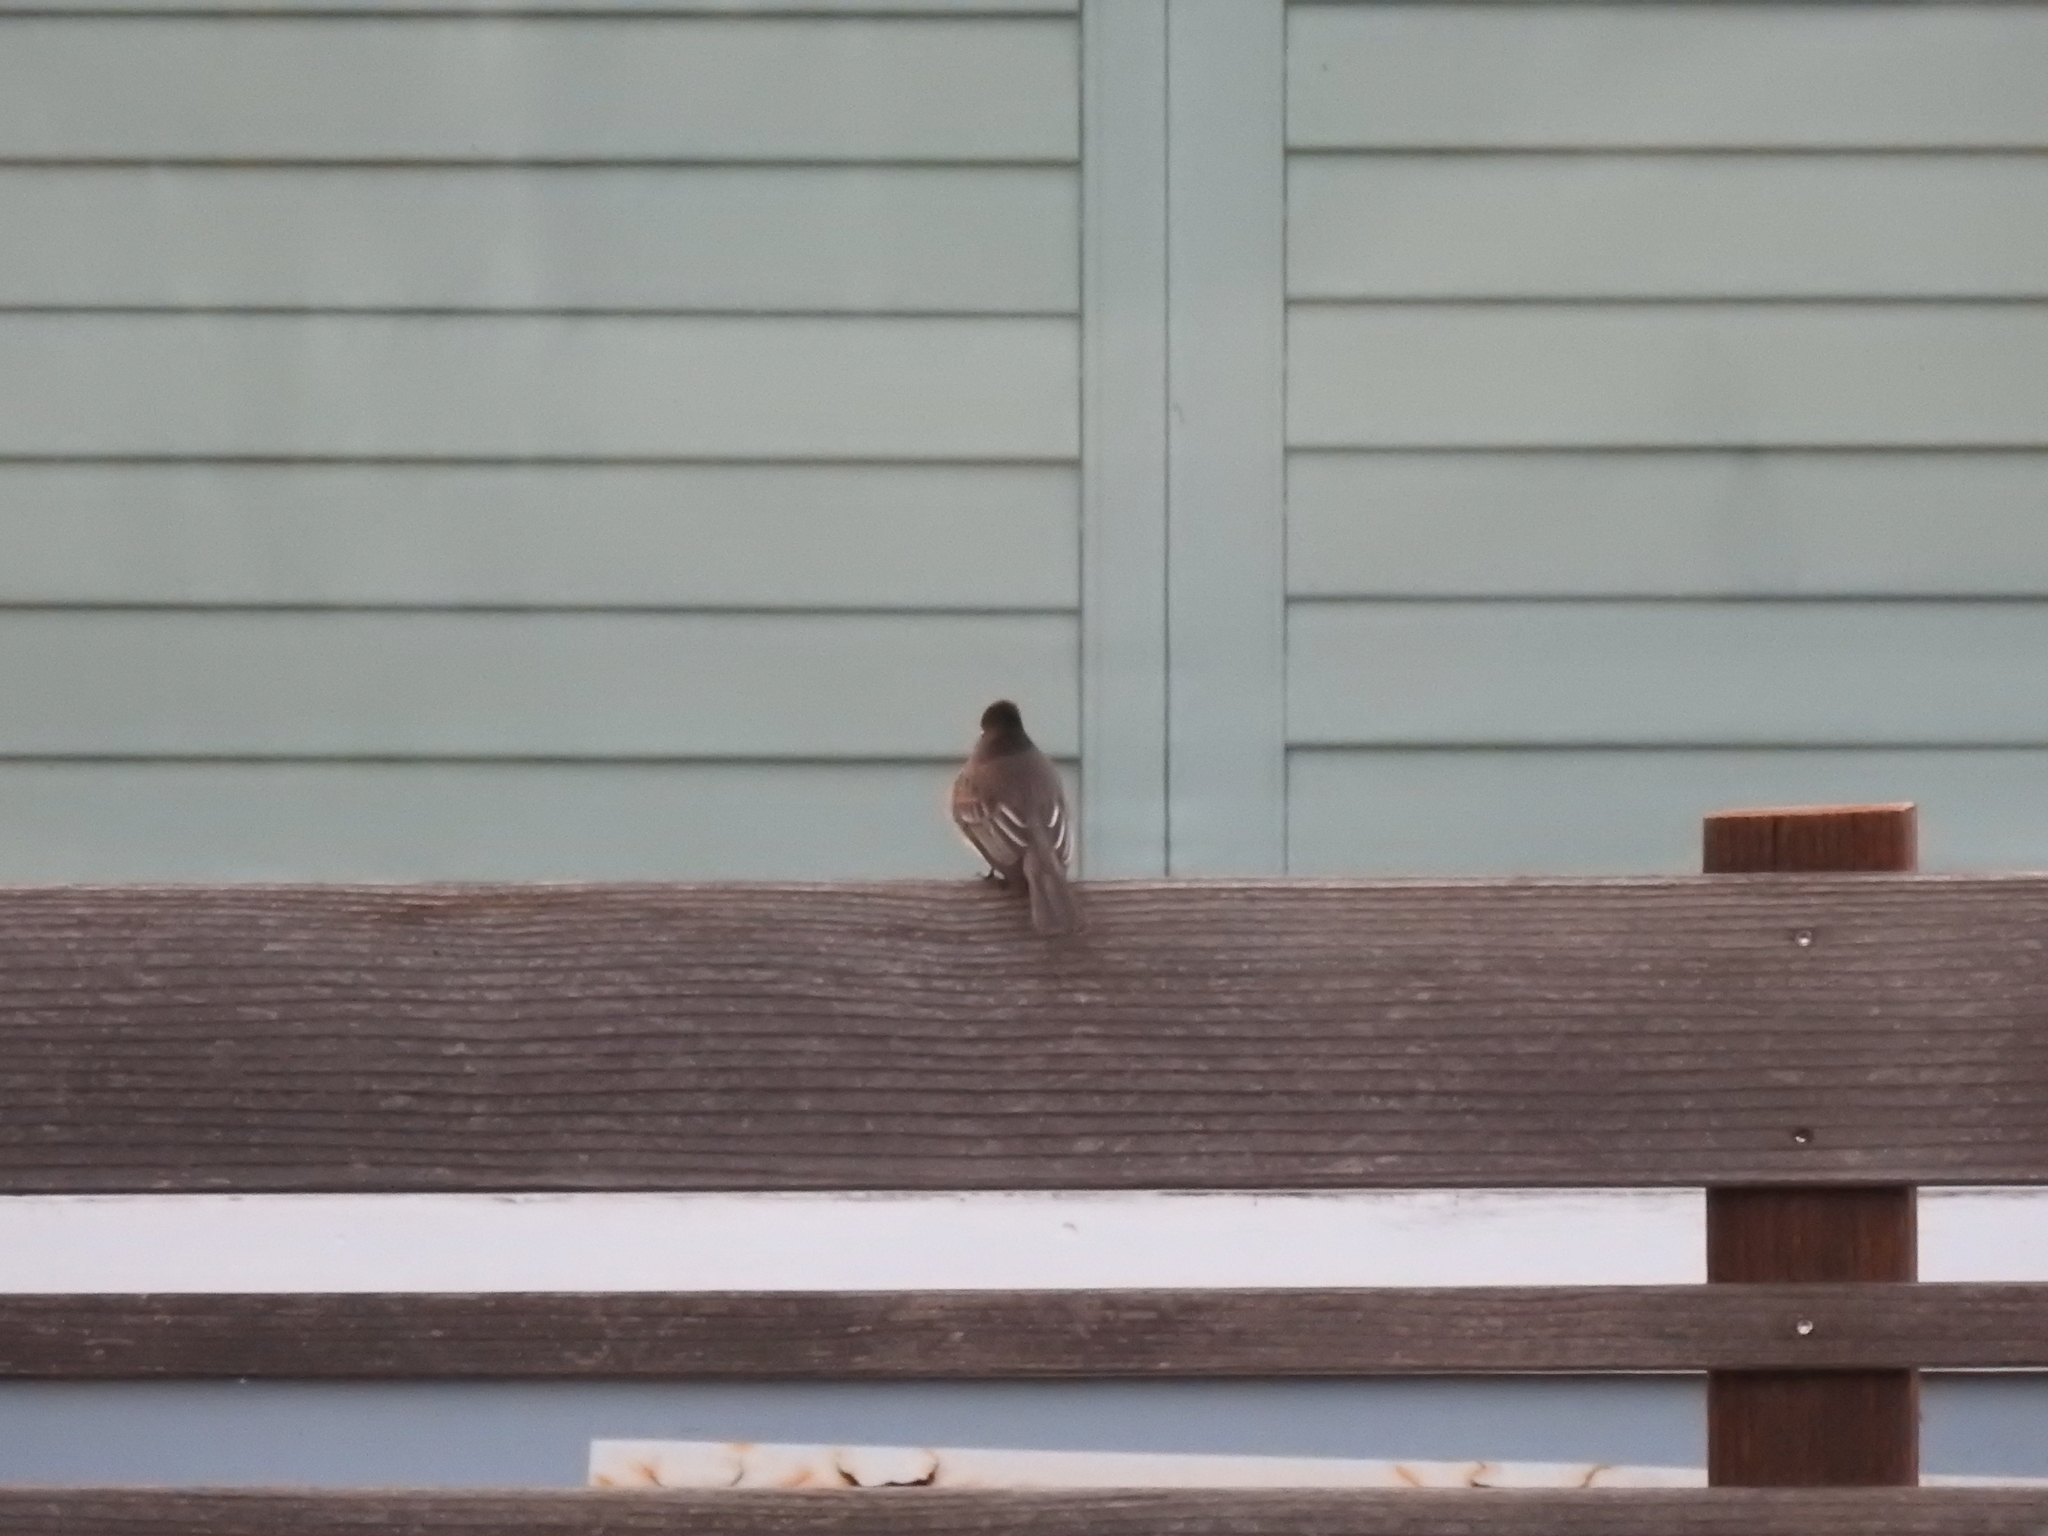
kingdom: Animalia
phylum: Chordata
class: Aves
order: Passeriformes
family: Tyrannidae
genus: Sayornis
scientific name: Sayornis nigricans
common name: Black phoebe
